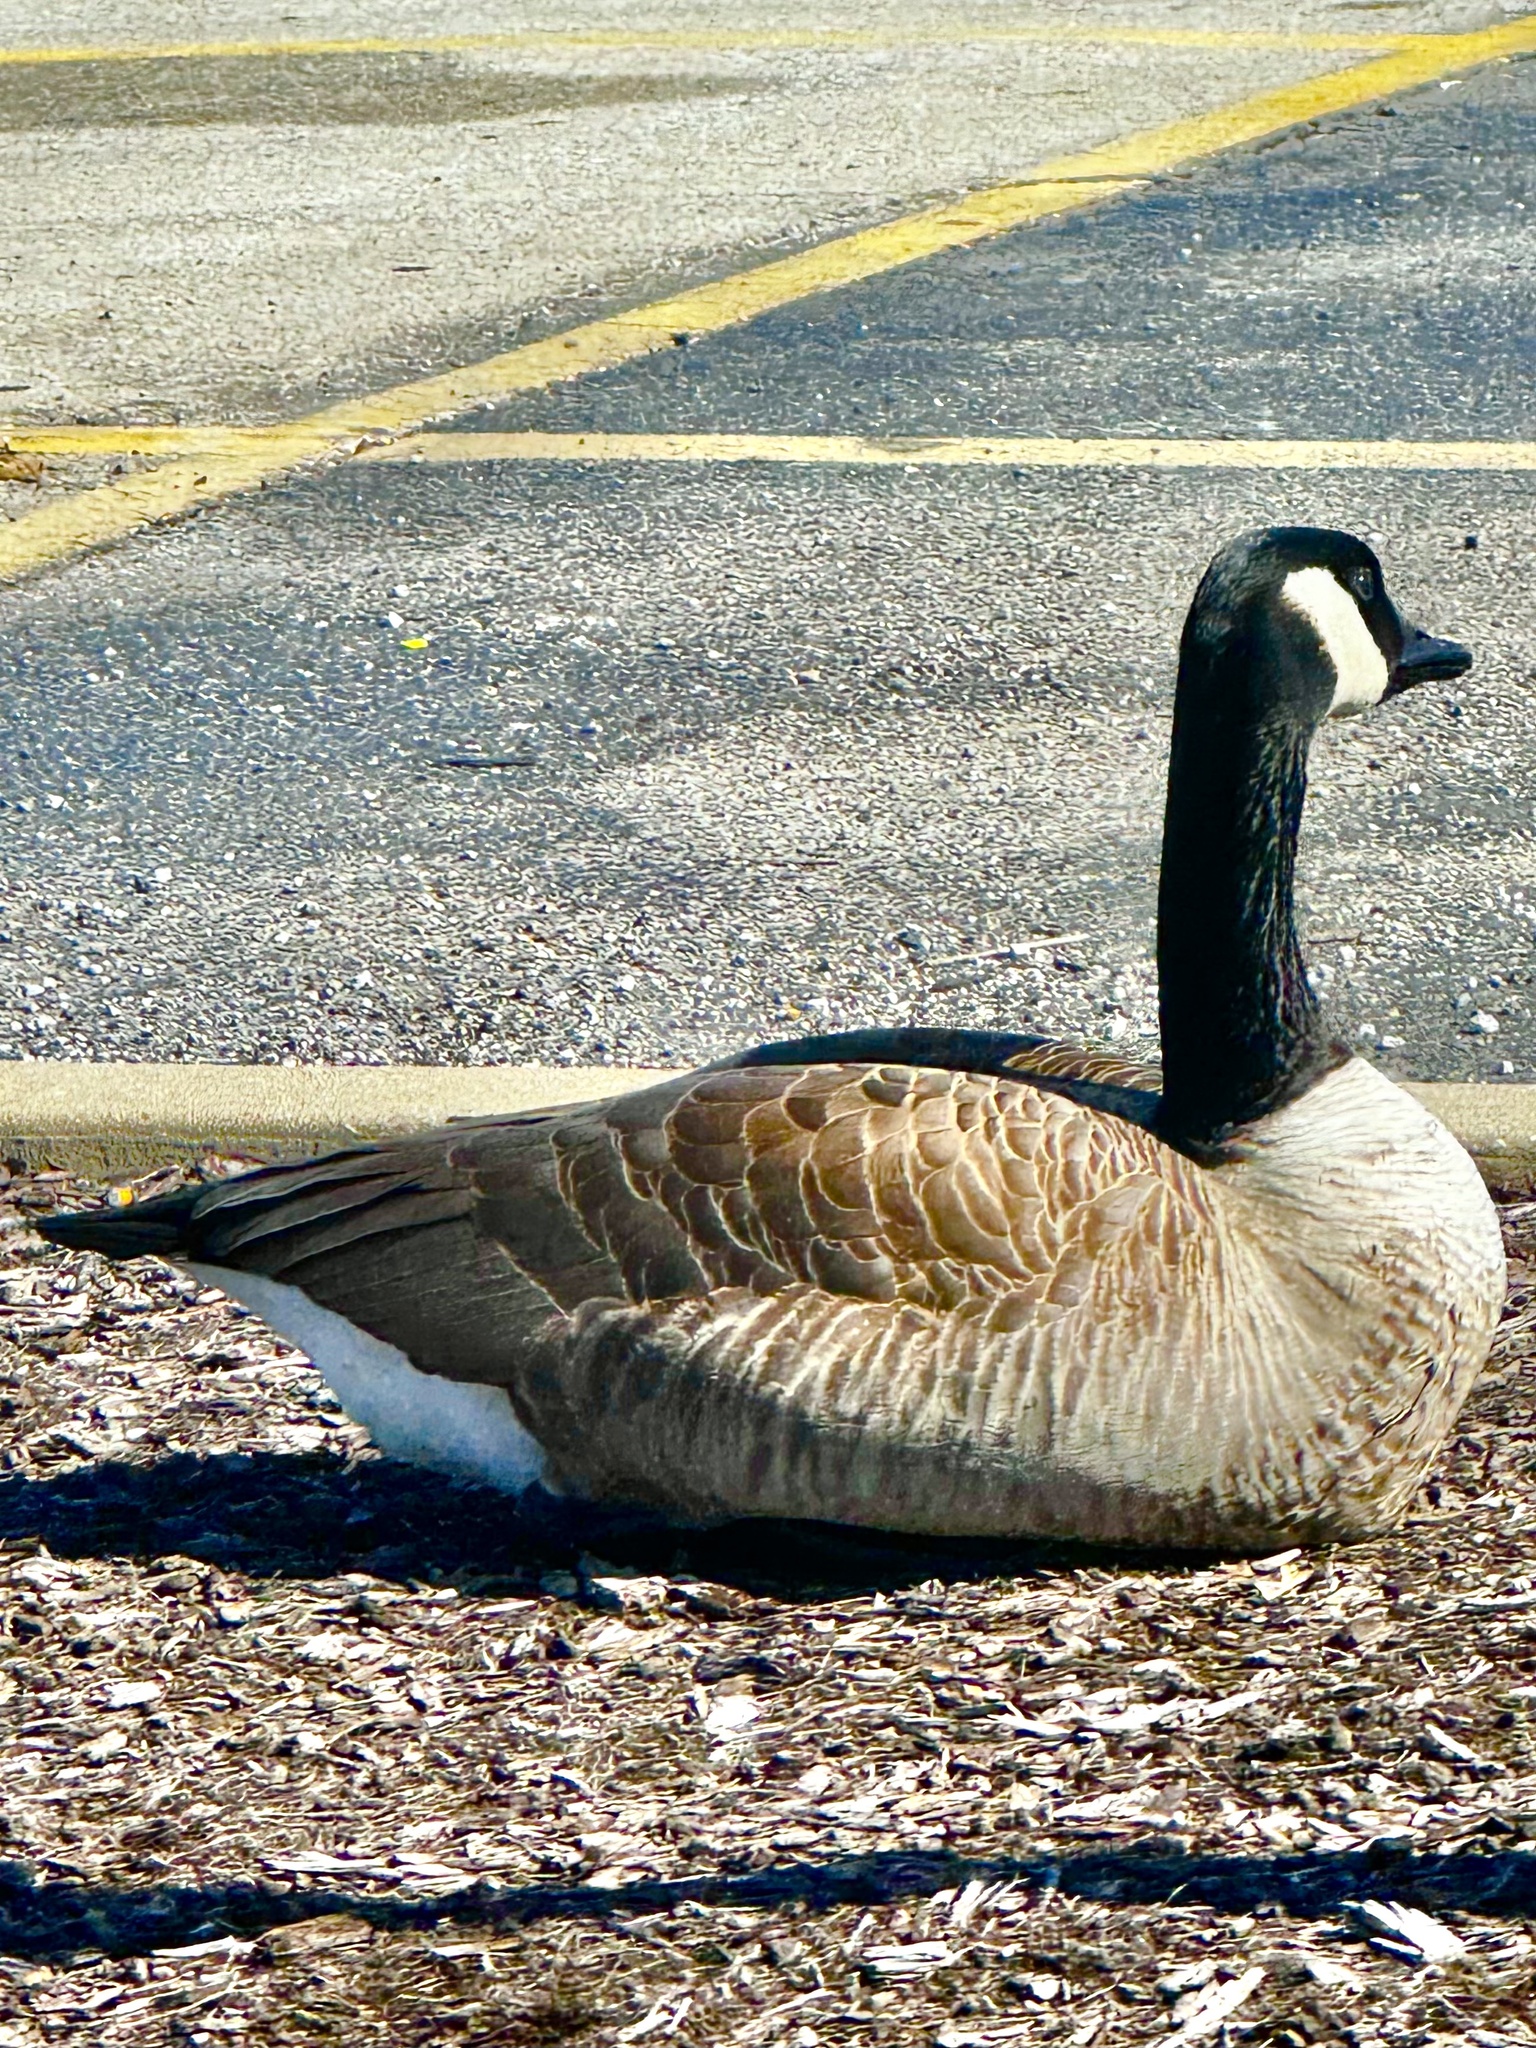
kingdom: Animalia
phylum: Chordata
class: Aves
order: Anseriformes
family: Anatidae
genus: Branta
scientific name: Branta canadensis
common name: Canada goose
